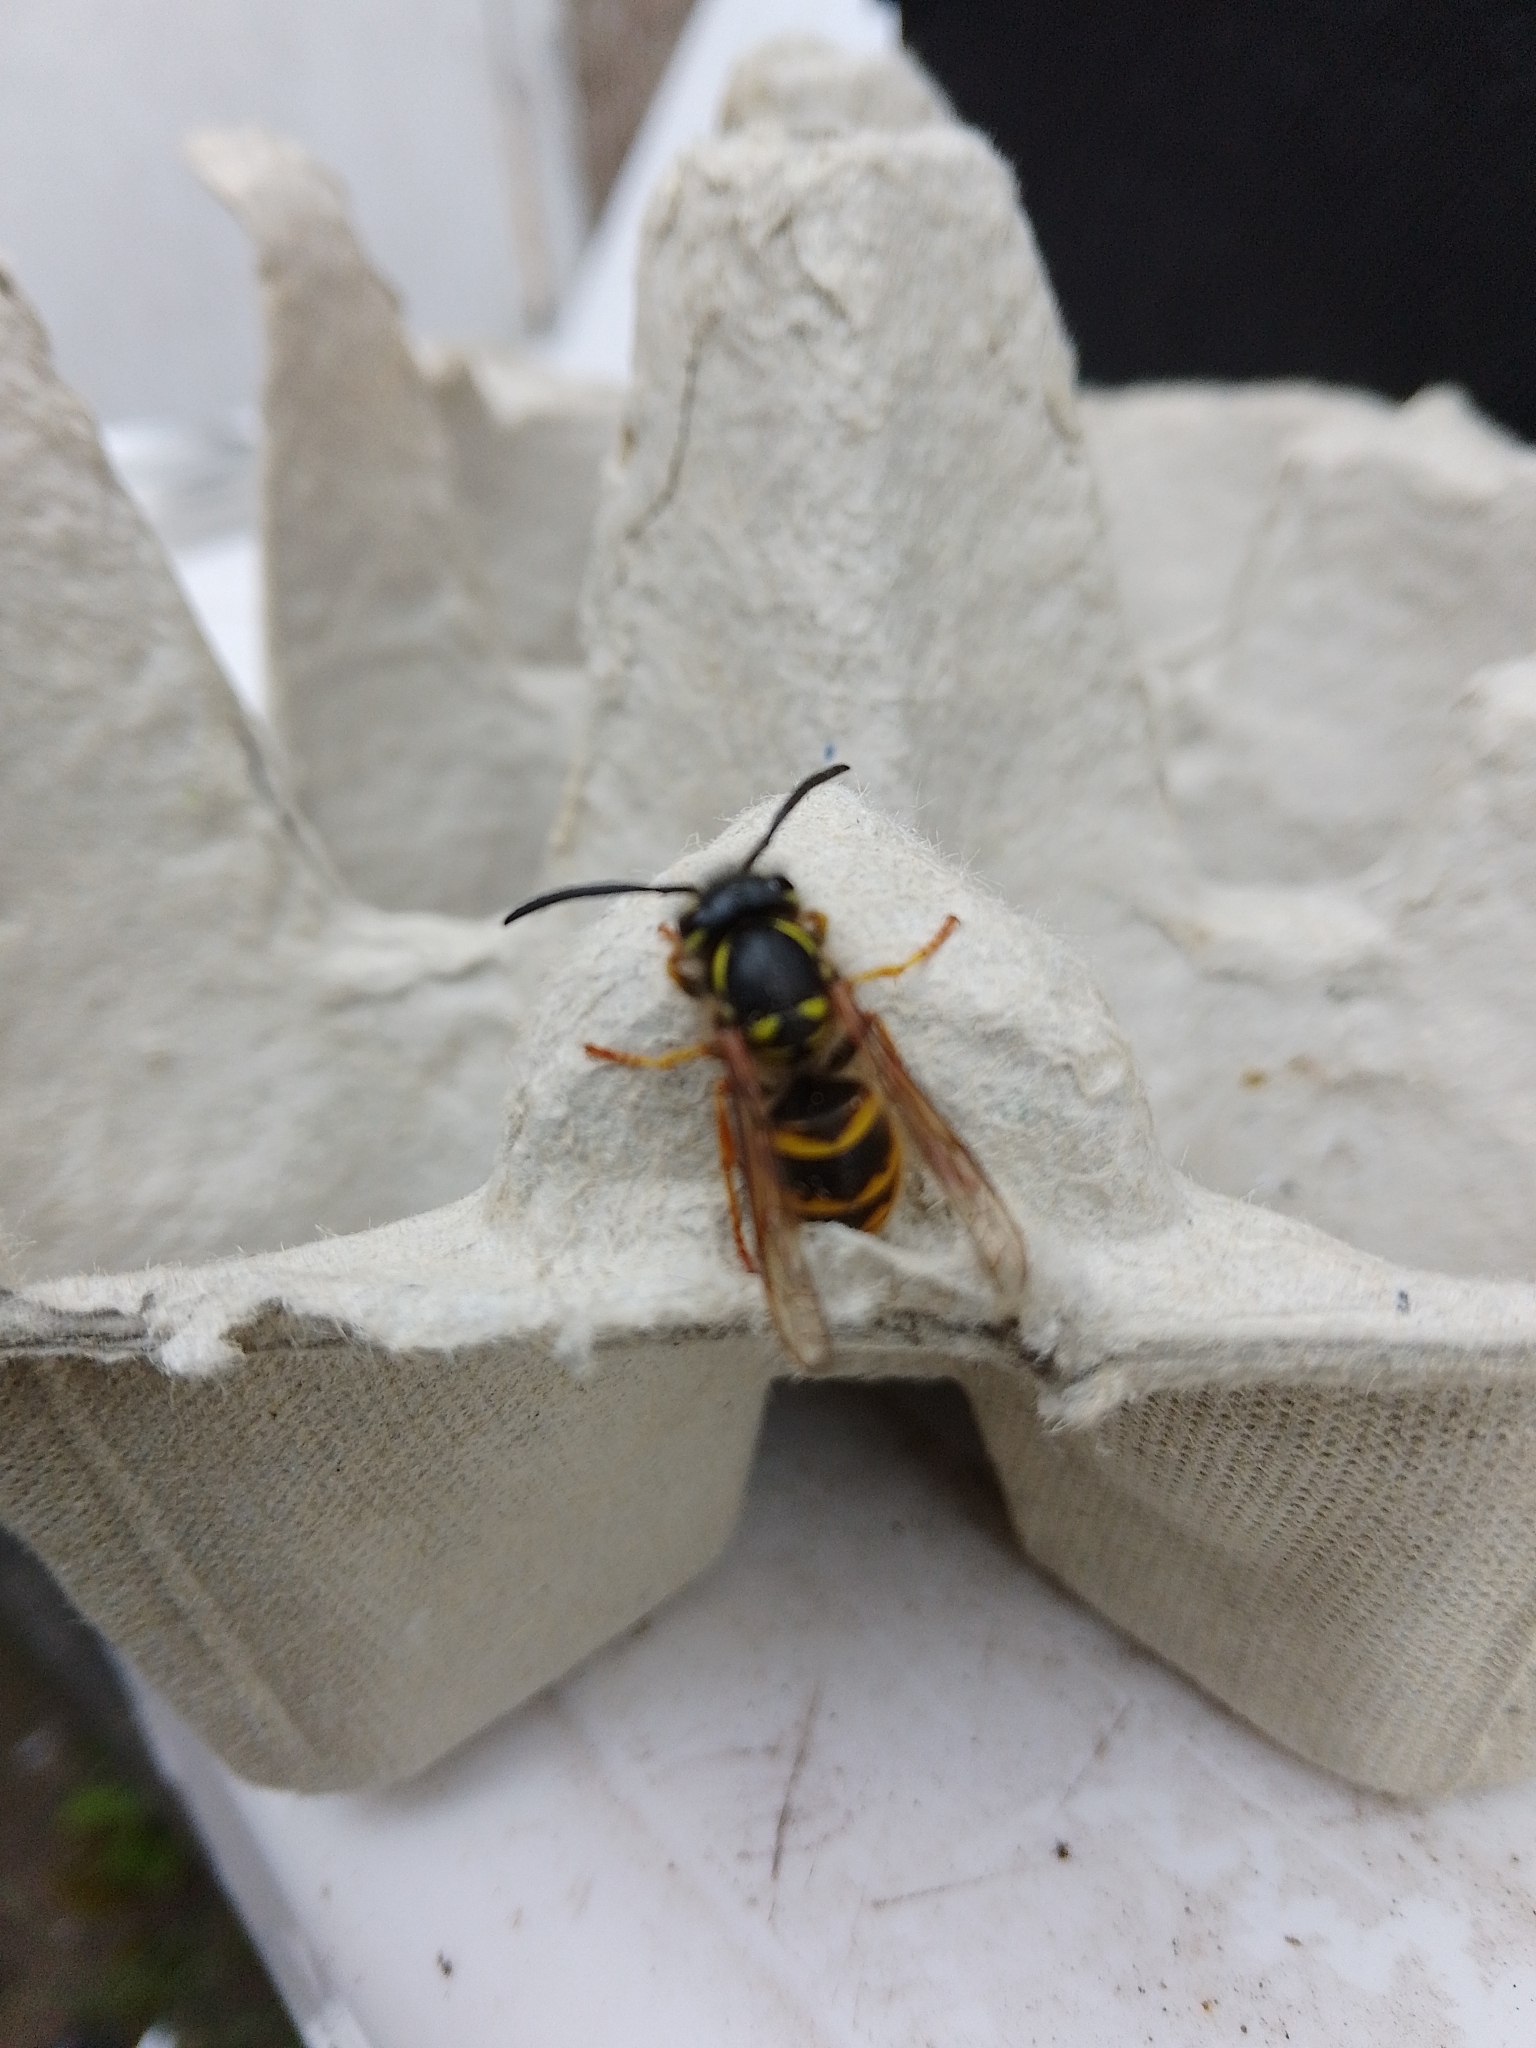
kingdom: Animalia
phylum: Arthropoda
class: Insecta
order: Hymenoptera
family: Vespidae
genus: Vespula
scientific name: Vespula vulgaris
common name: Common wasp
